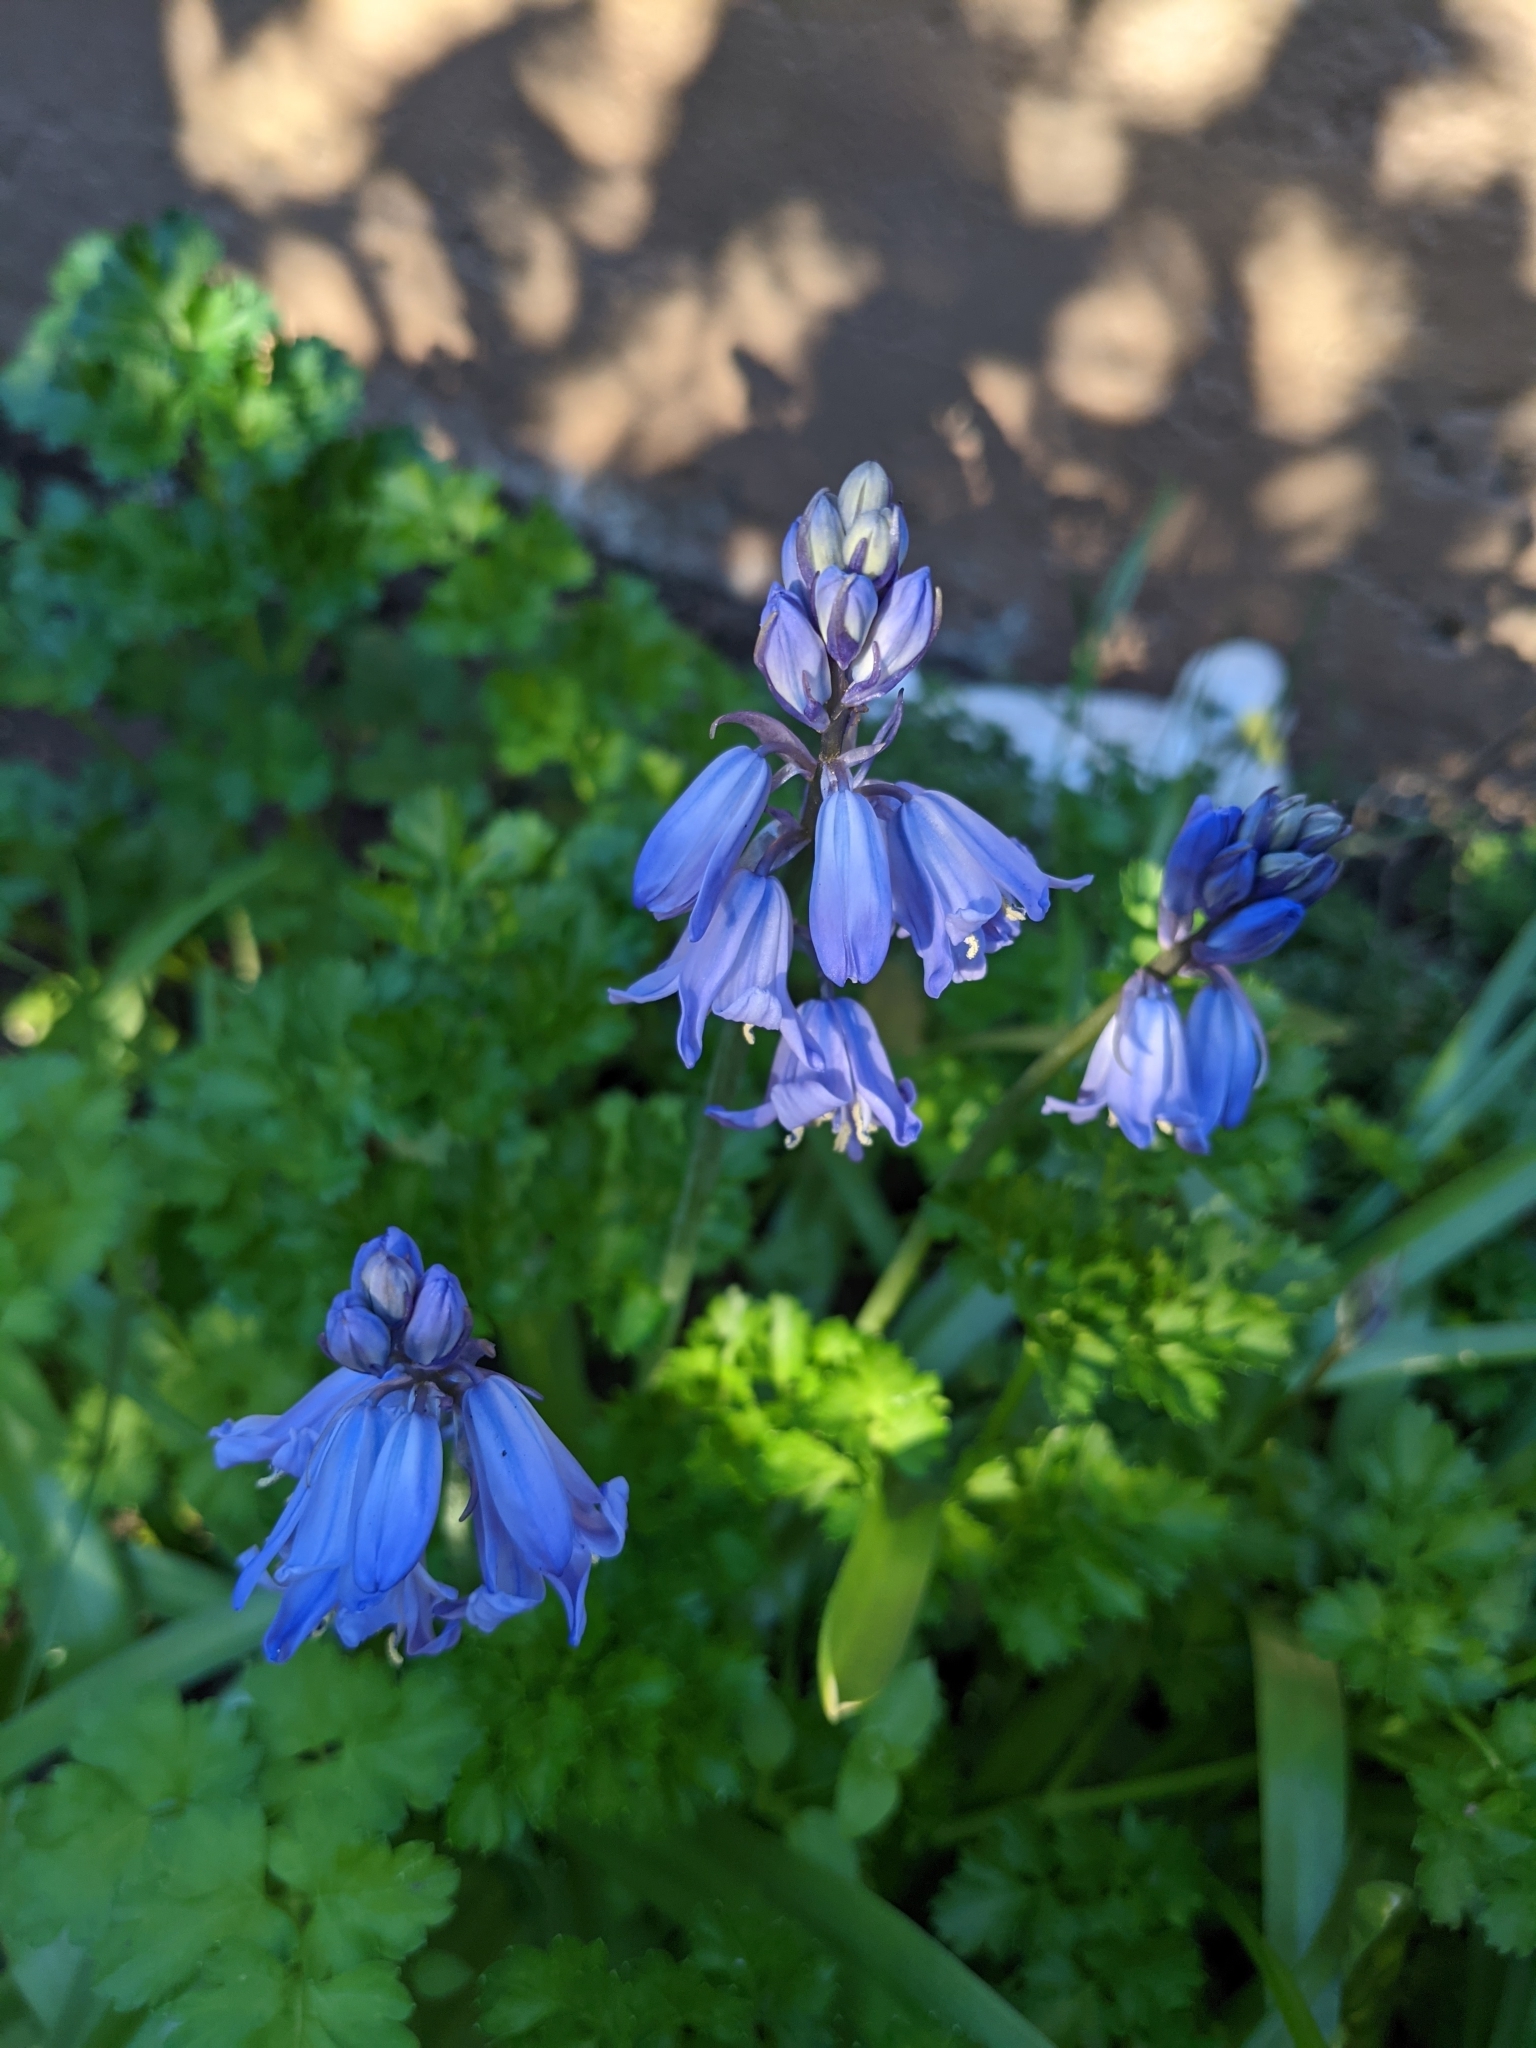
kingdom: Plantae
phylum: Tracheophyta
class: Liliopsida
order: Asparagales
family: Asparagaceae
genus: Hyacinthoides
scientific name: Hyacinthoides hispanica
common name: Spanish bluebell
